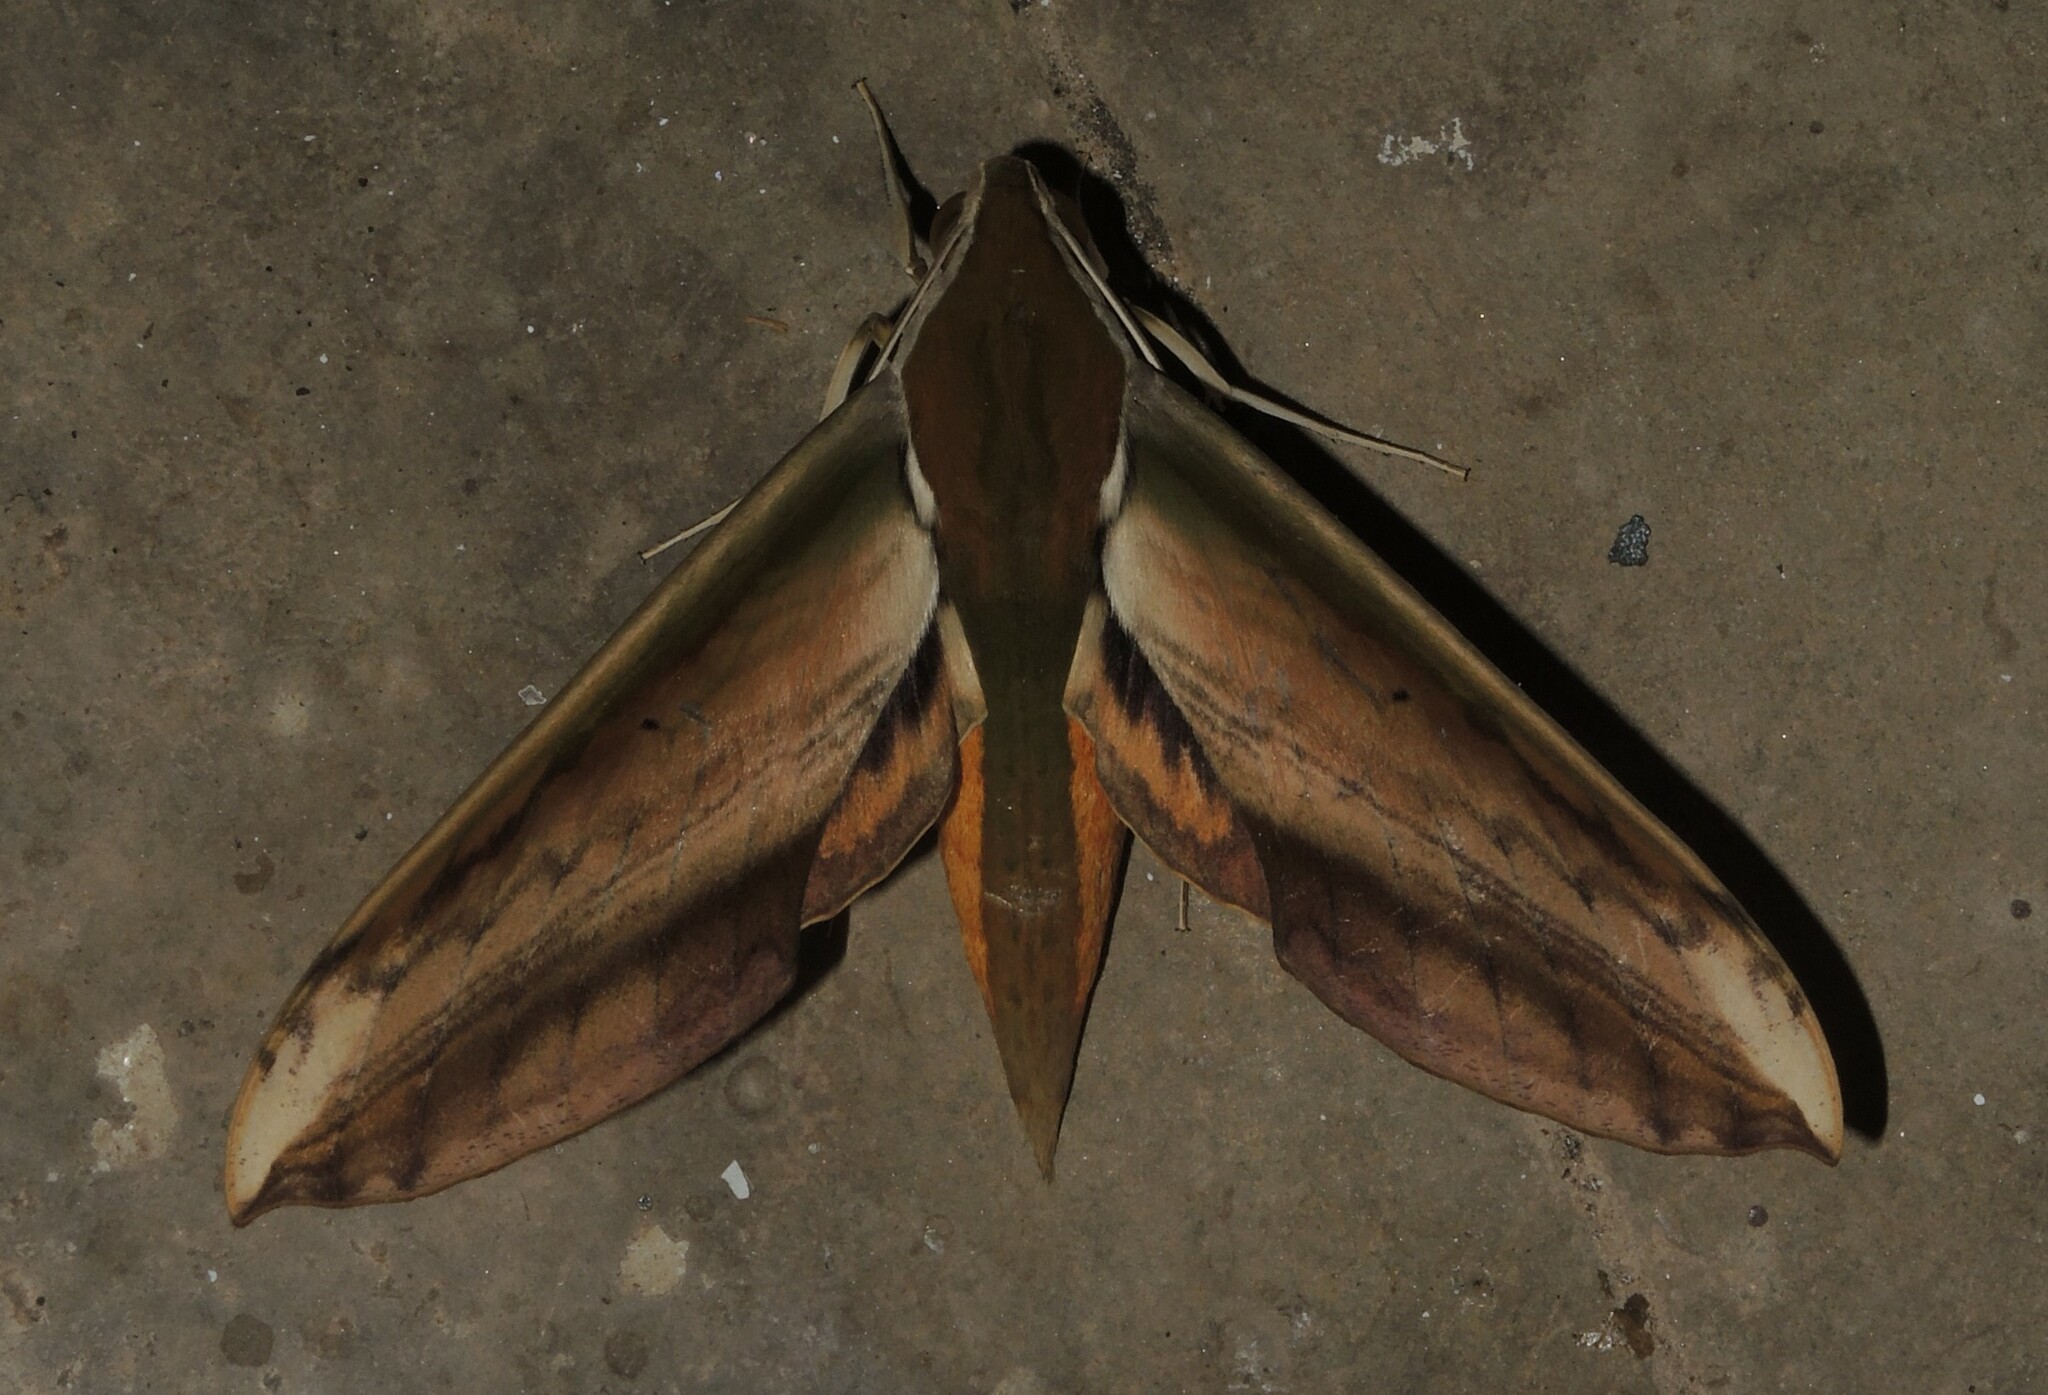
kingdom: Animalia
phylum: Arthropoda
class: Insecta
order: Lepidoptera
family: Sphingidae
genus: Theretra
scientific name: Theretra nessus
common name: Yam hawk moth
